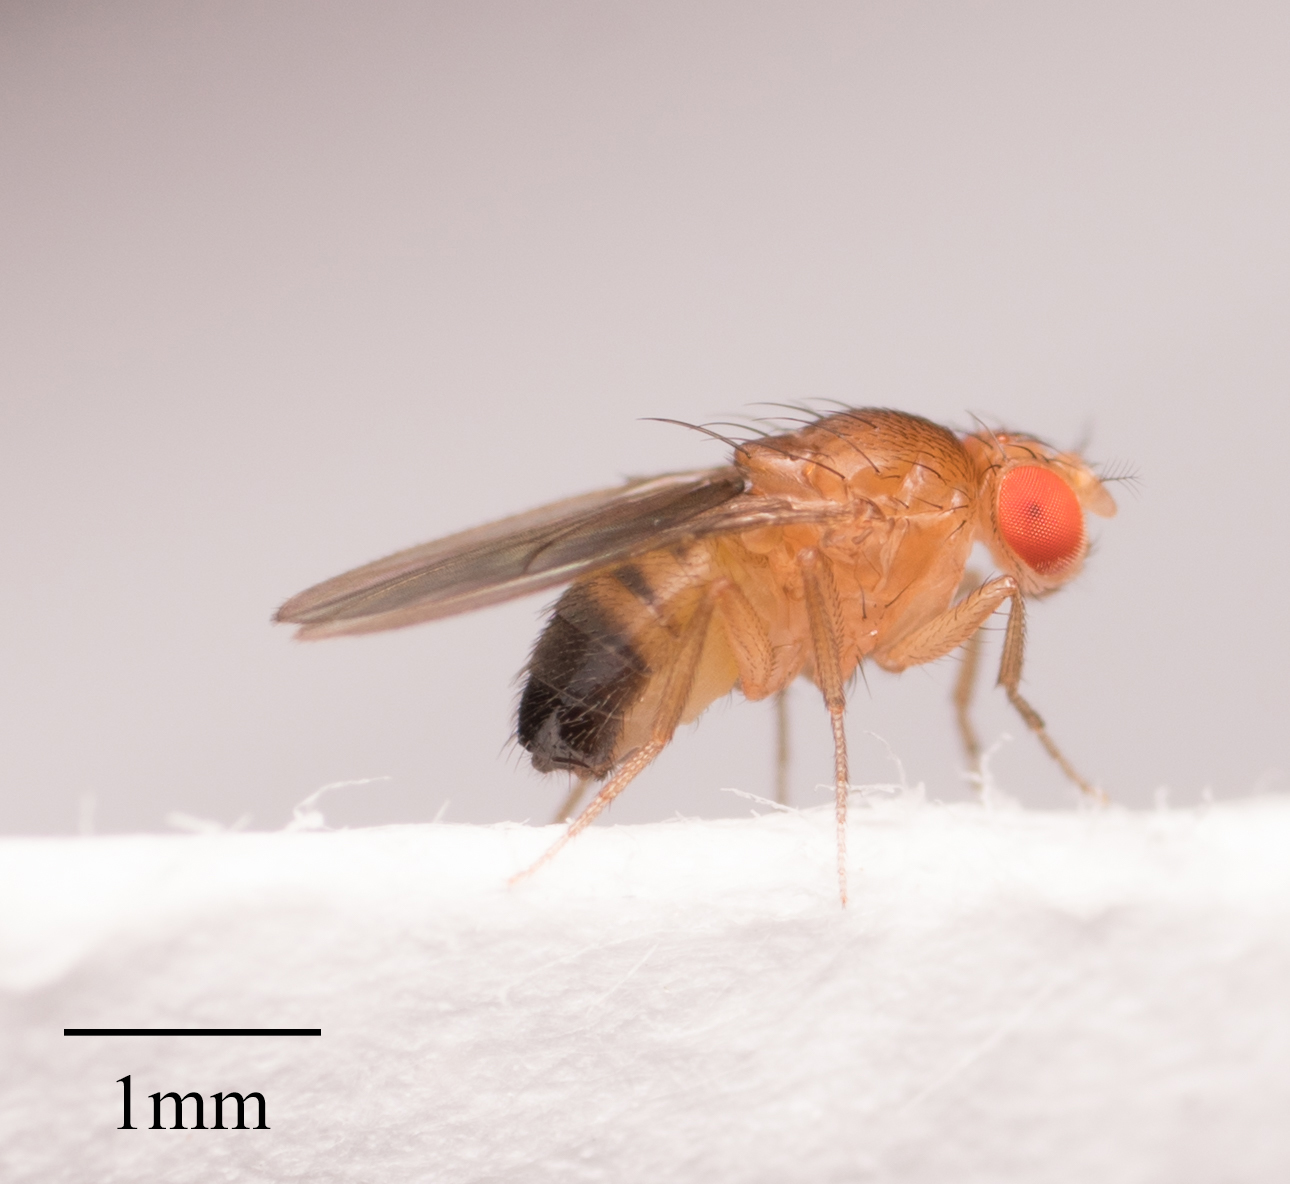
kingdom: Animalia
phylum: Arthropoda
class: Insecta
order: Diptera
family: Drosophilidae
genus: Drosophila
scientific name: Drosophila melanogaster
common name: Pomace fly
